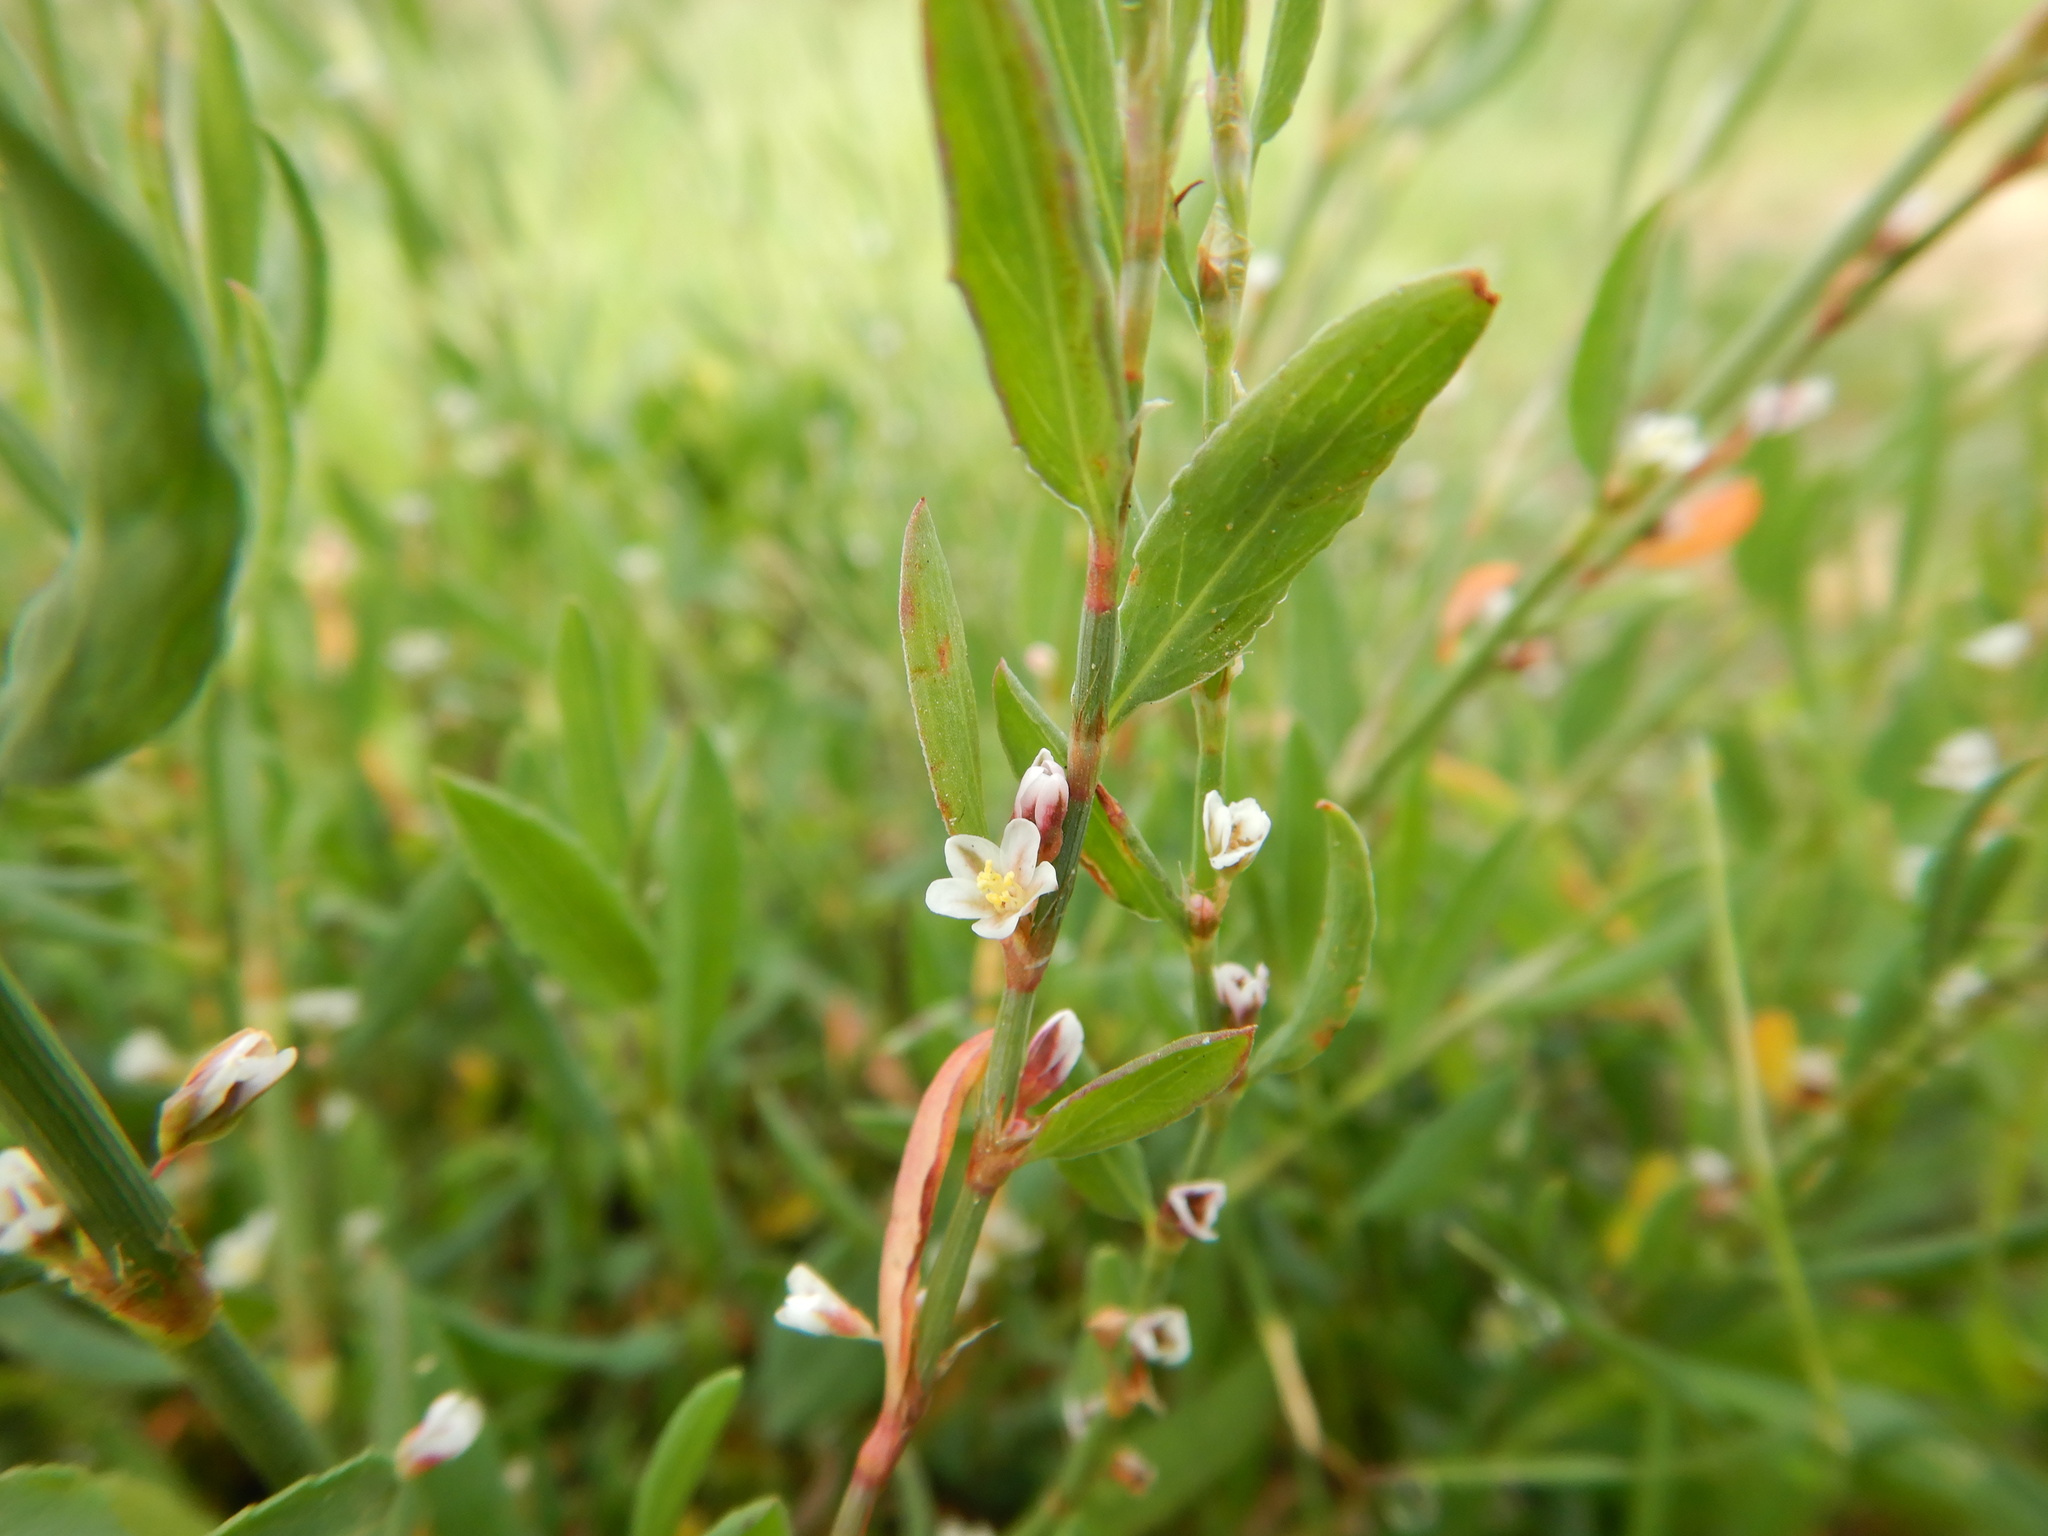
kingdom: Plantae
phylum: Tracheophyta
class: Magnoliopsida
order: Caryophyllales
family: Polygonaceae
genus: Polygonum
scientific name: Polygonum equisetiforme
